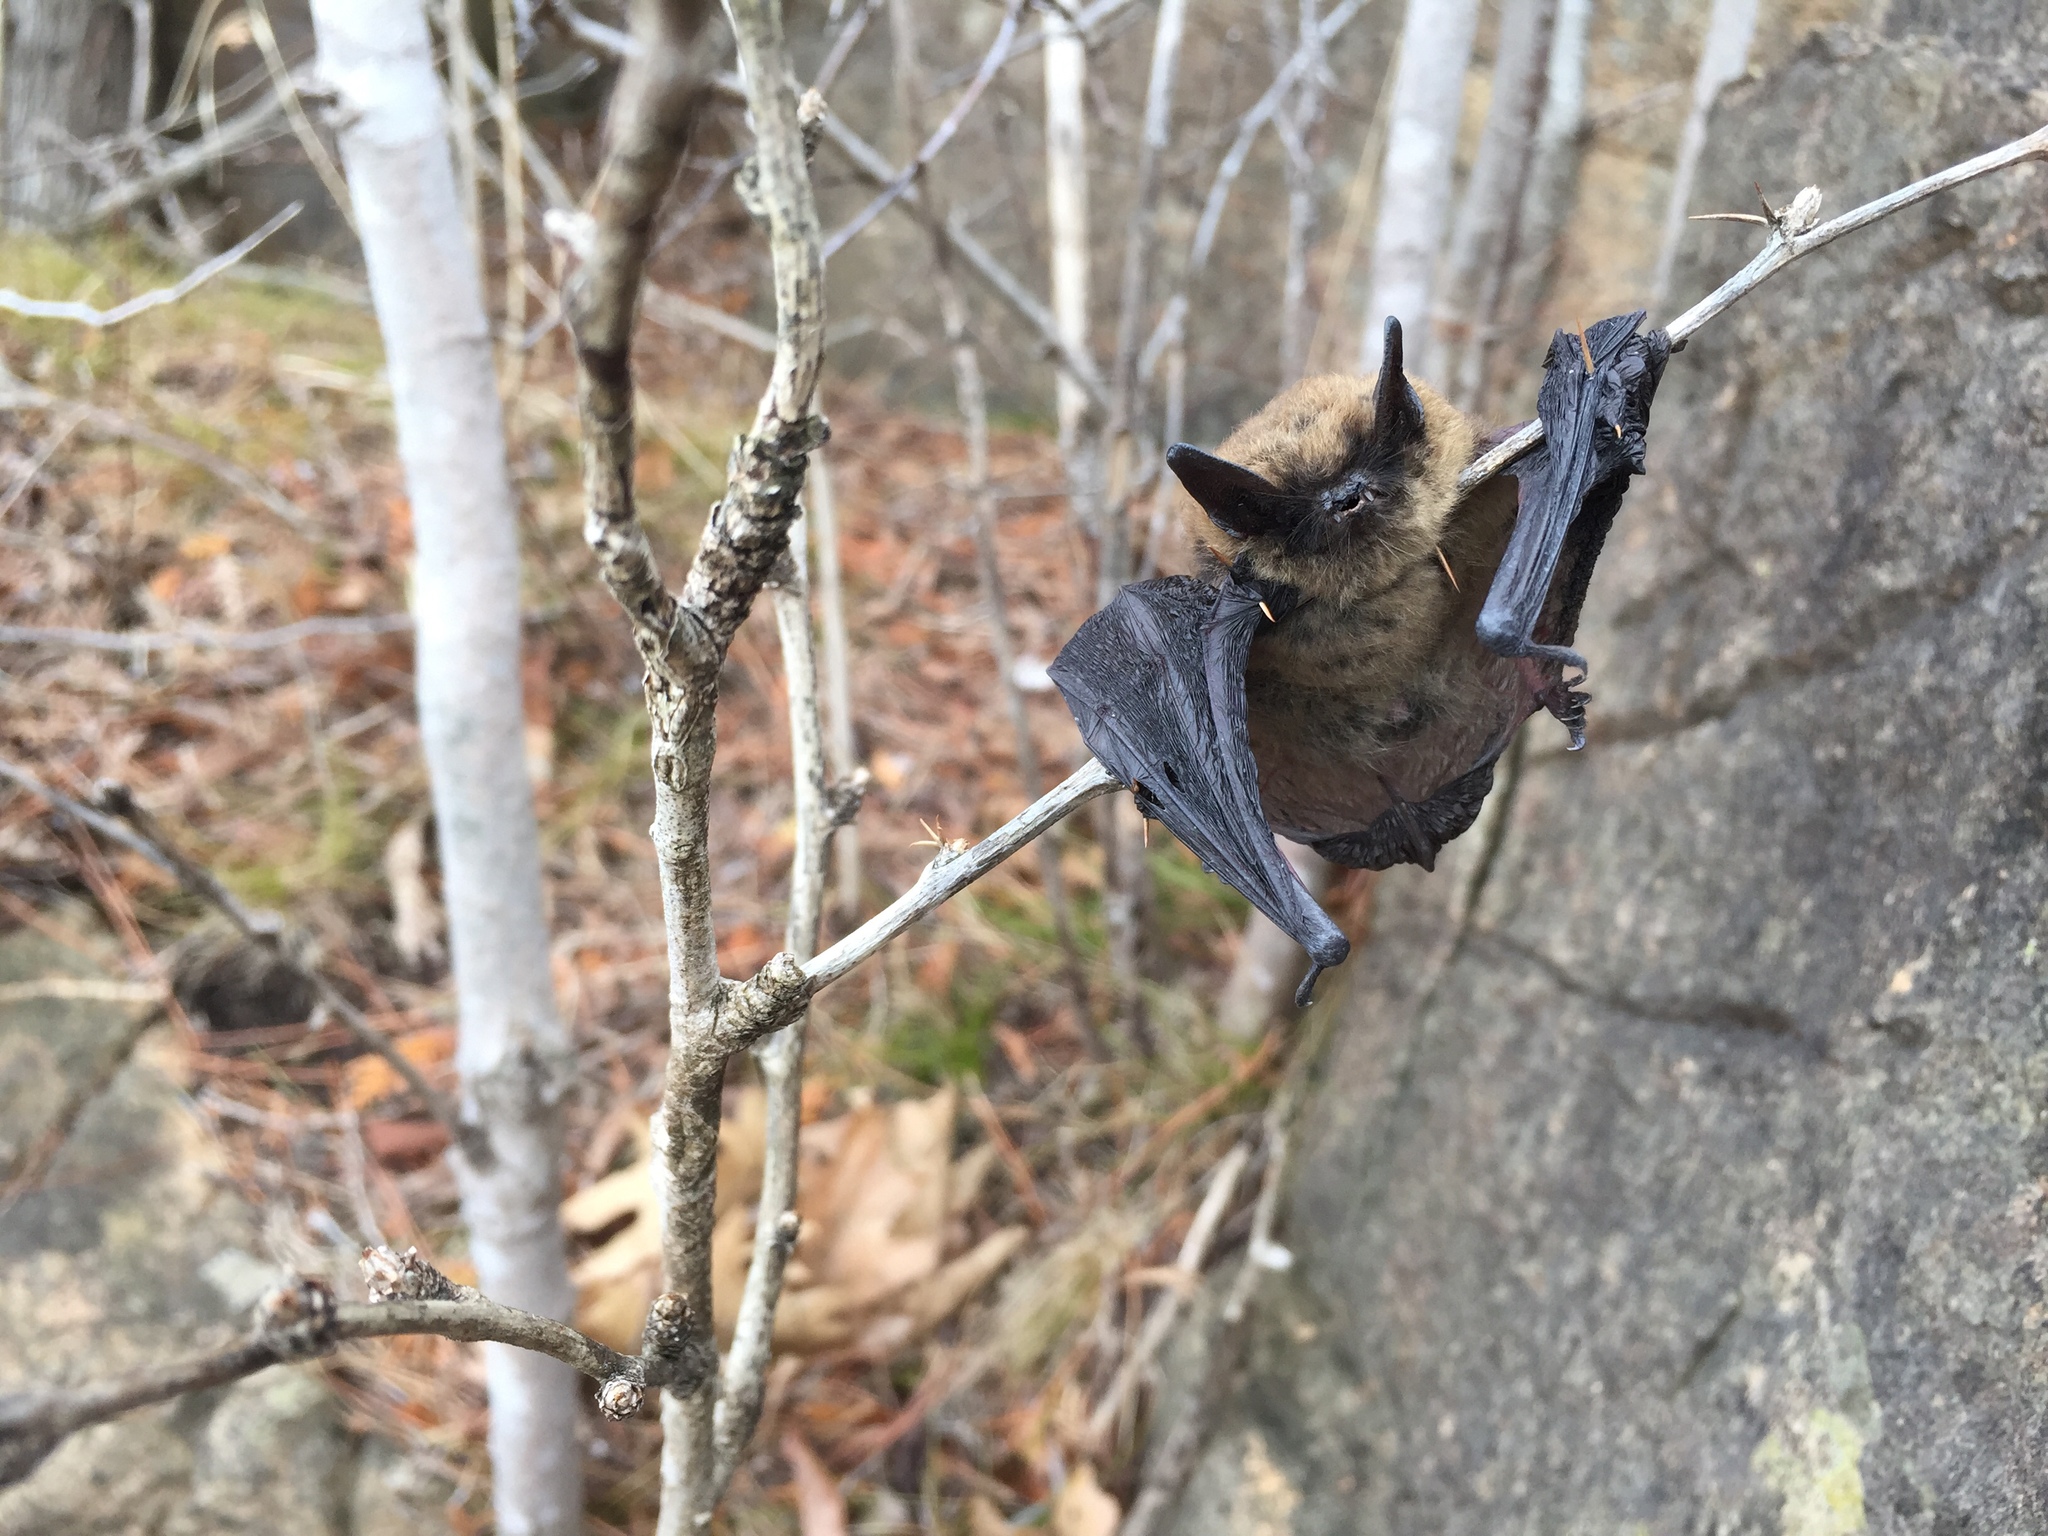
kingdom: Animalia
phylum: Chordata
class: Mammalia
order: Chiroptera
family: Vespertilionidae
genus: Myotis
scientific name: Myotis leibii
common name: Eastern small-footed myotis
